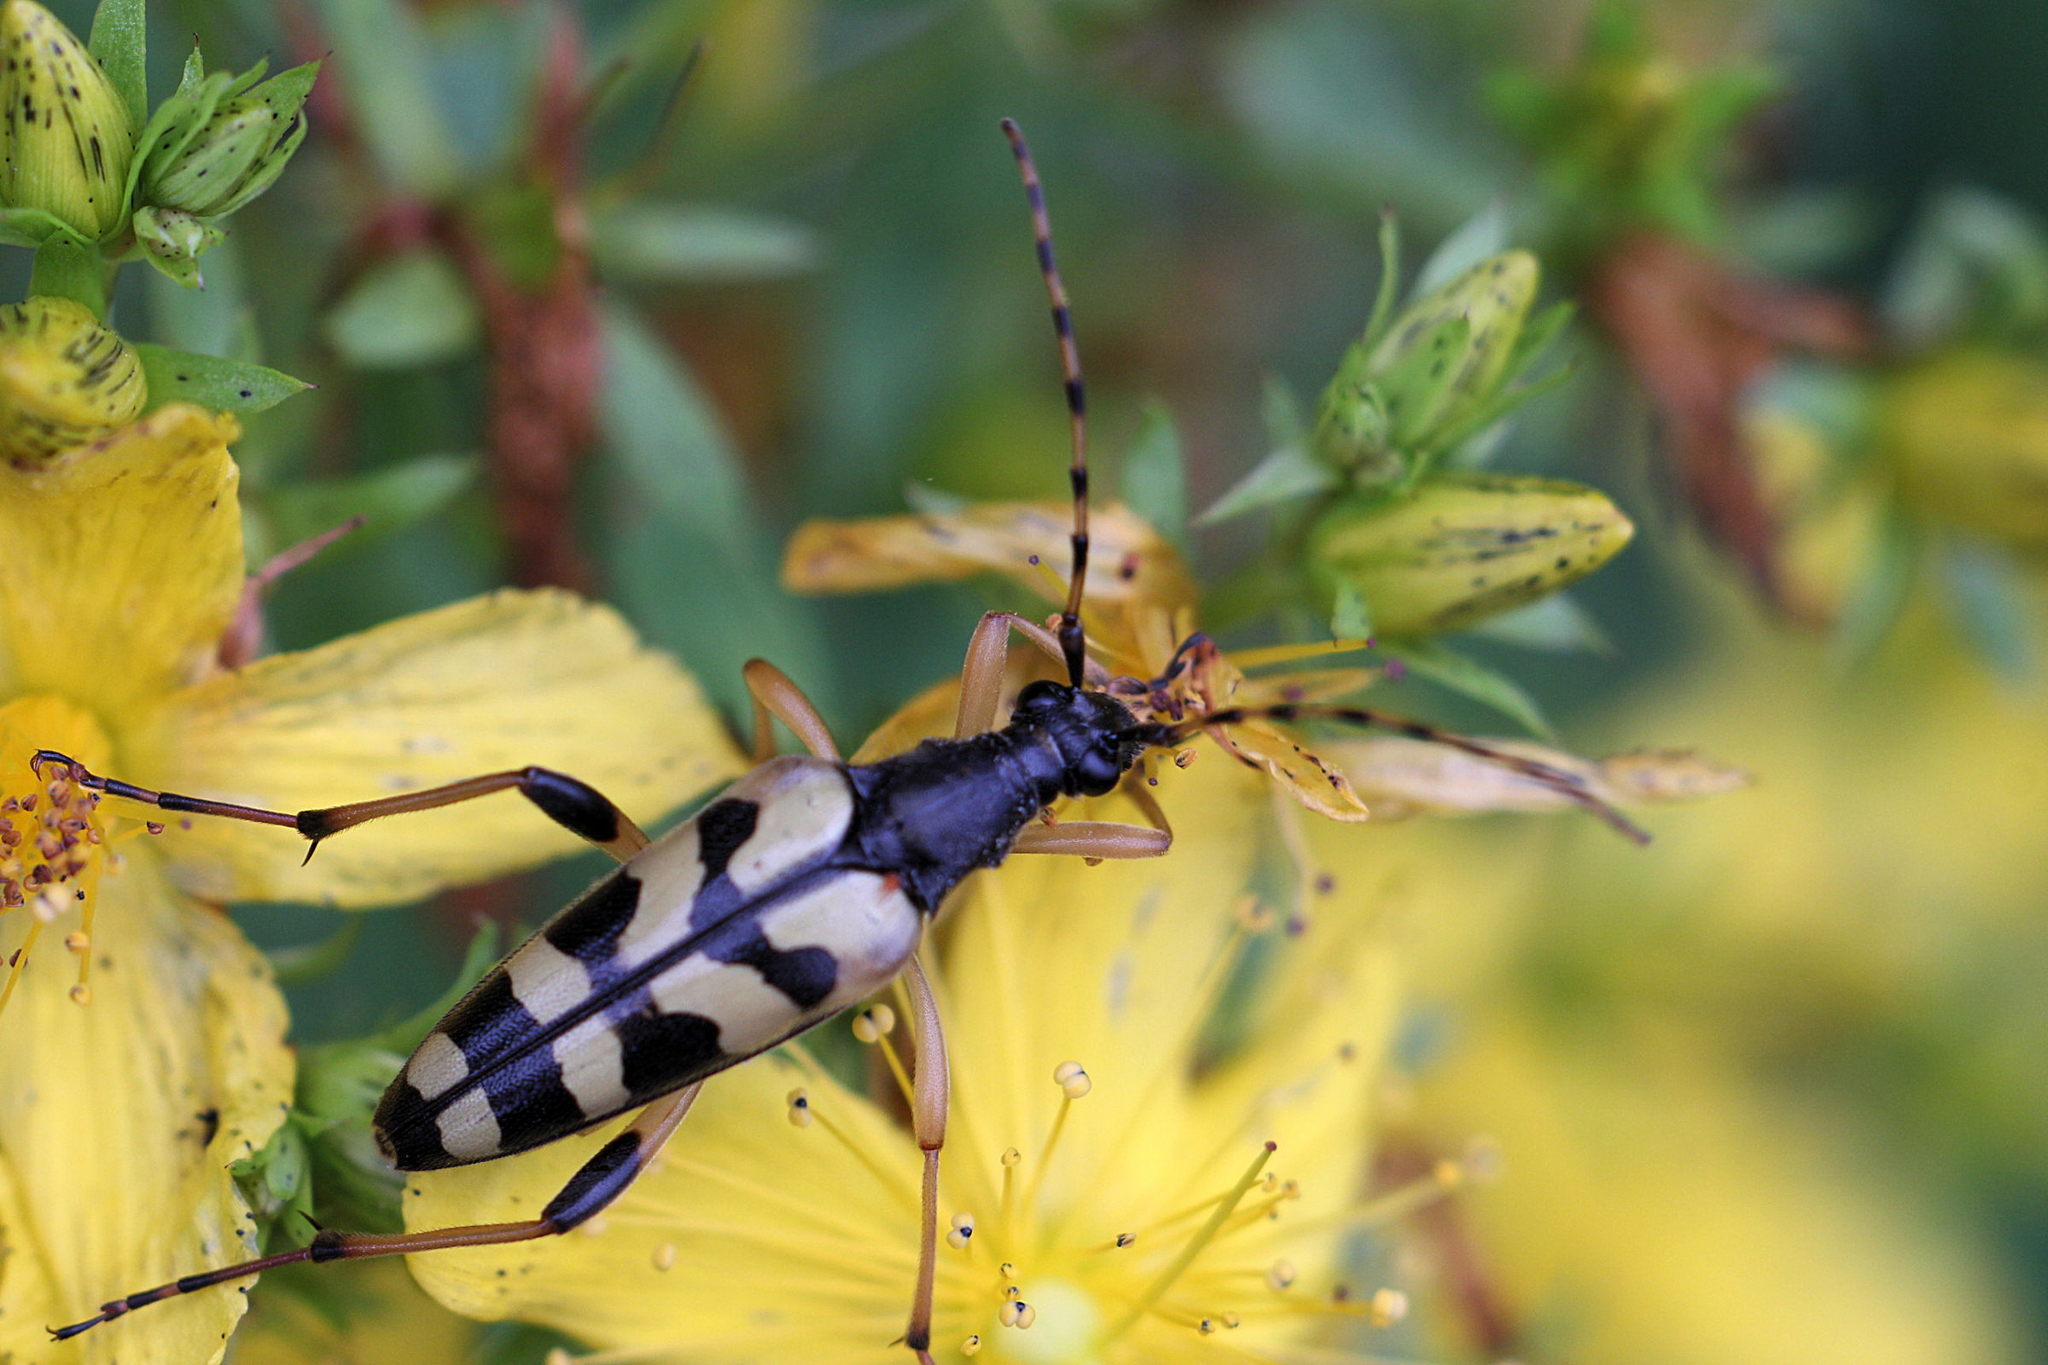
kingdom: Animalia
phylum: Arthropoda
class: Insecta
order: Coleoptera
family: Cerambycidae
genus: Rutpela
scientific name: Rutpela maculata
